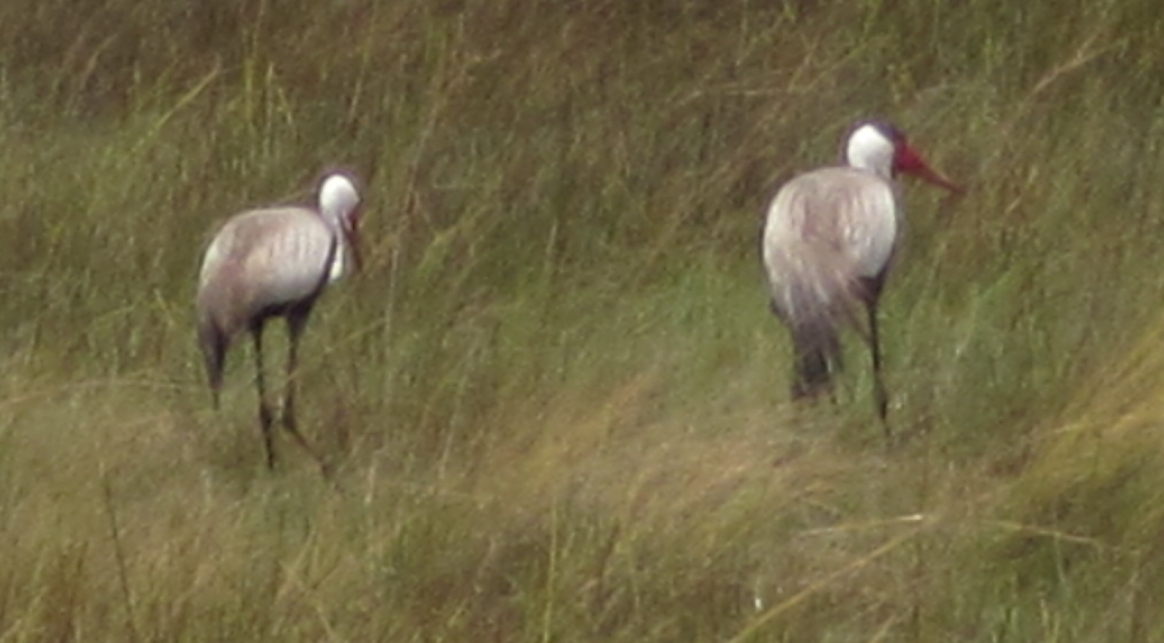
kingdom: Animalia
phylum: Chordata
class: Aves
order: Gruiformes
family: Gruidae
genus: Bugeranus
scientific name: Bugeranus carunculatus
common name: Wattled crane
